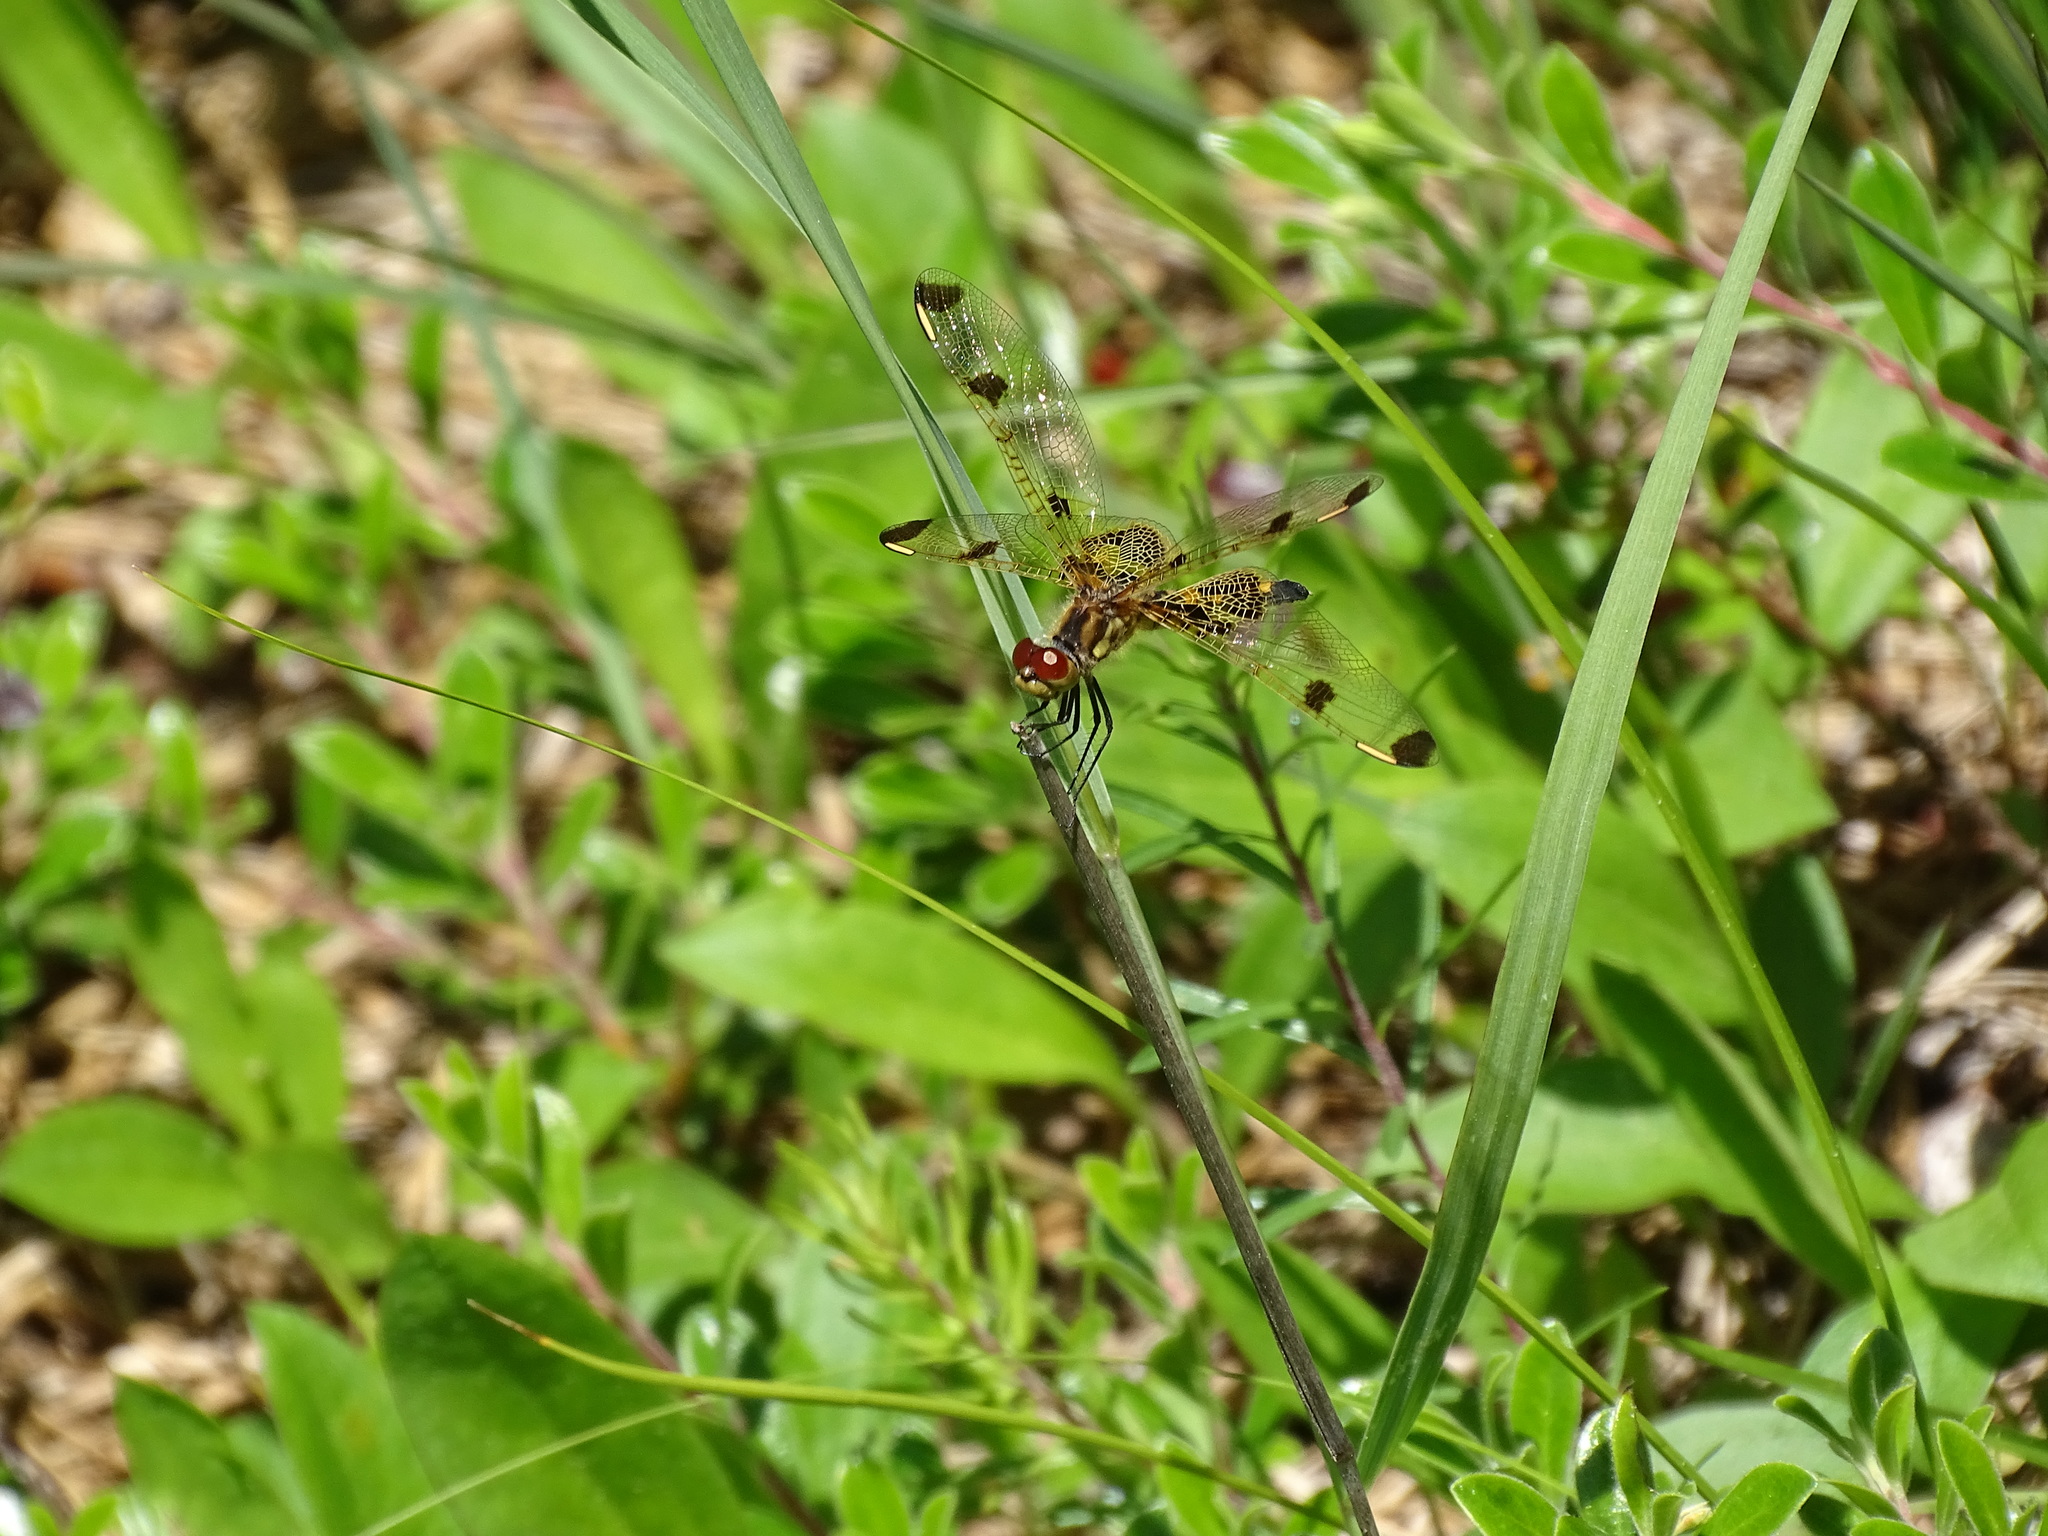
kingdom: Animalia
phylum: Arthropoda
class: Insecta
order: Odonata
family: Libellulidae
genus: Celithemis
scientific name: Celithemis elisa
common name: Calico pennant
